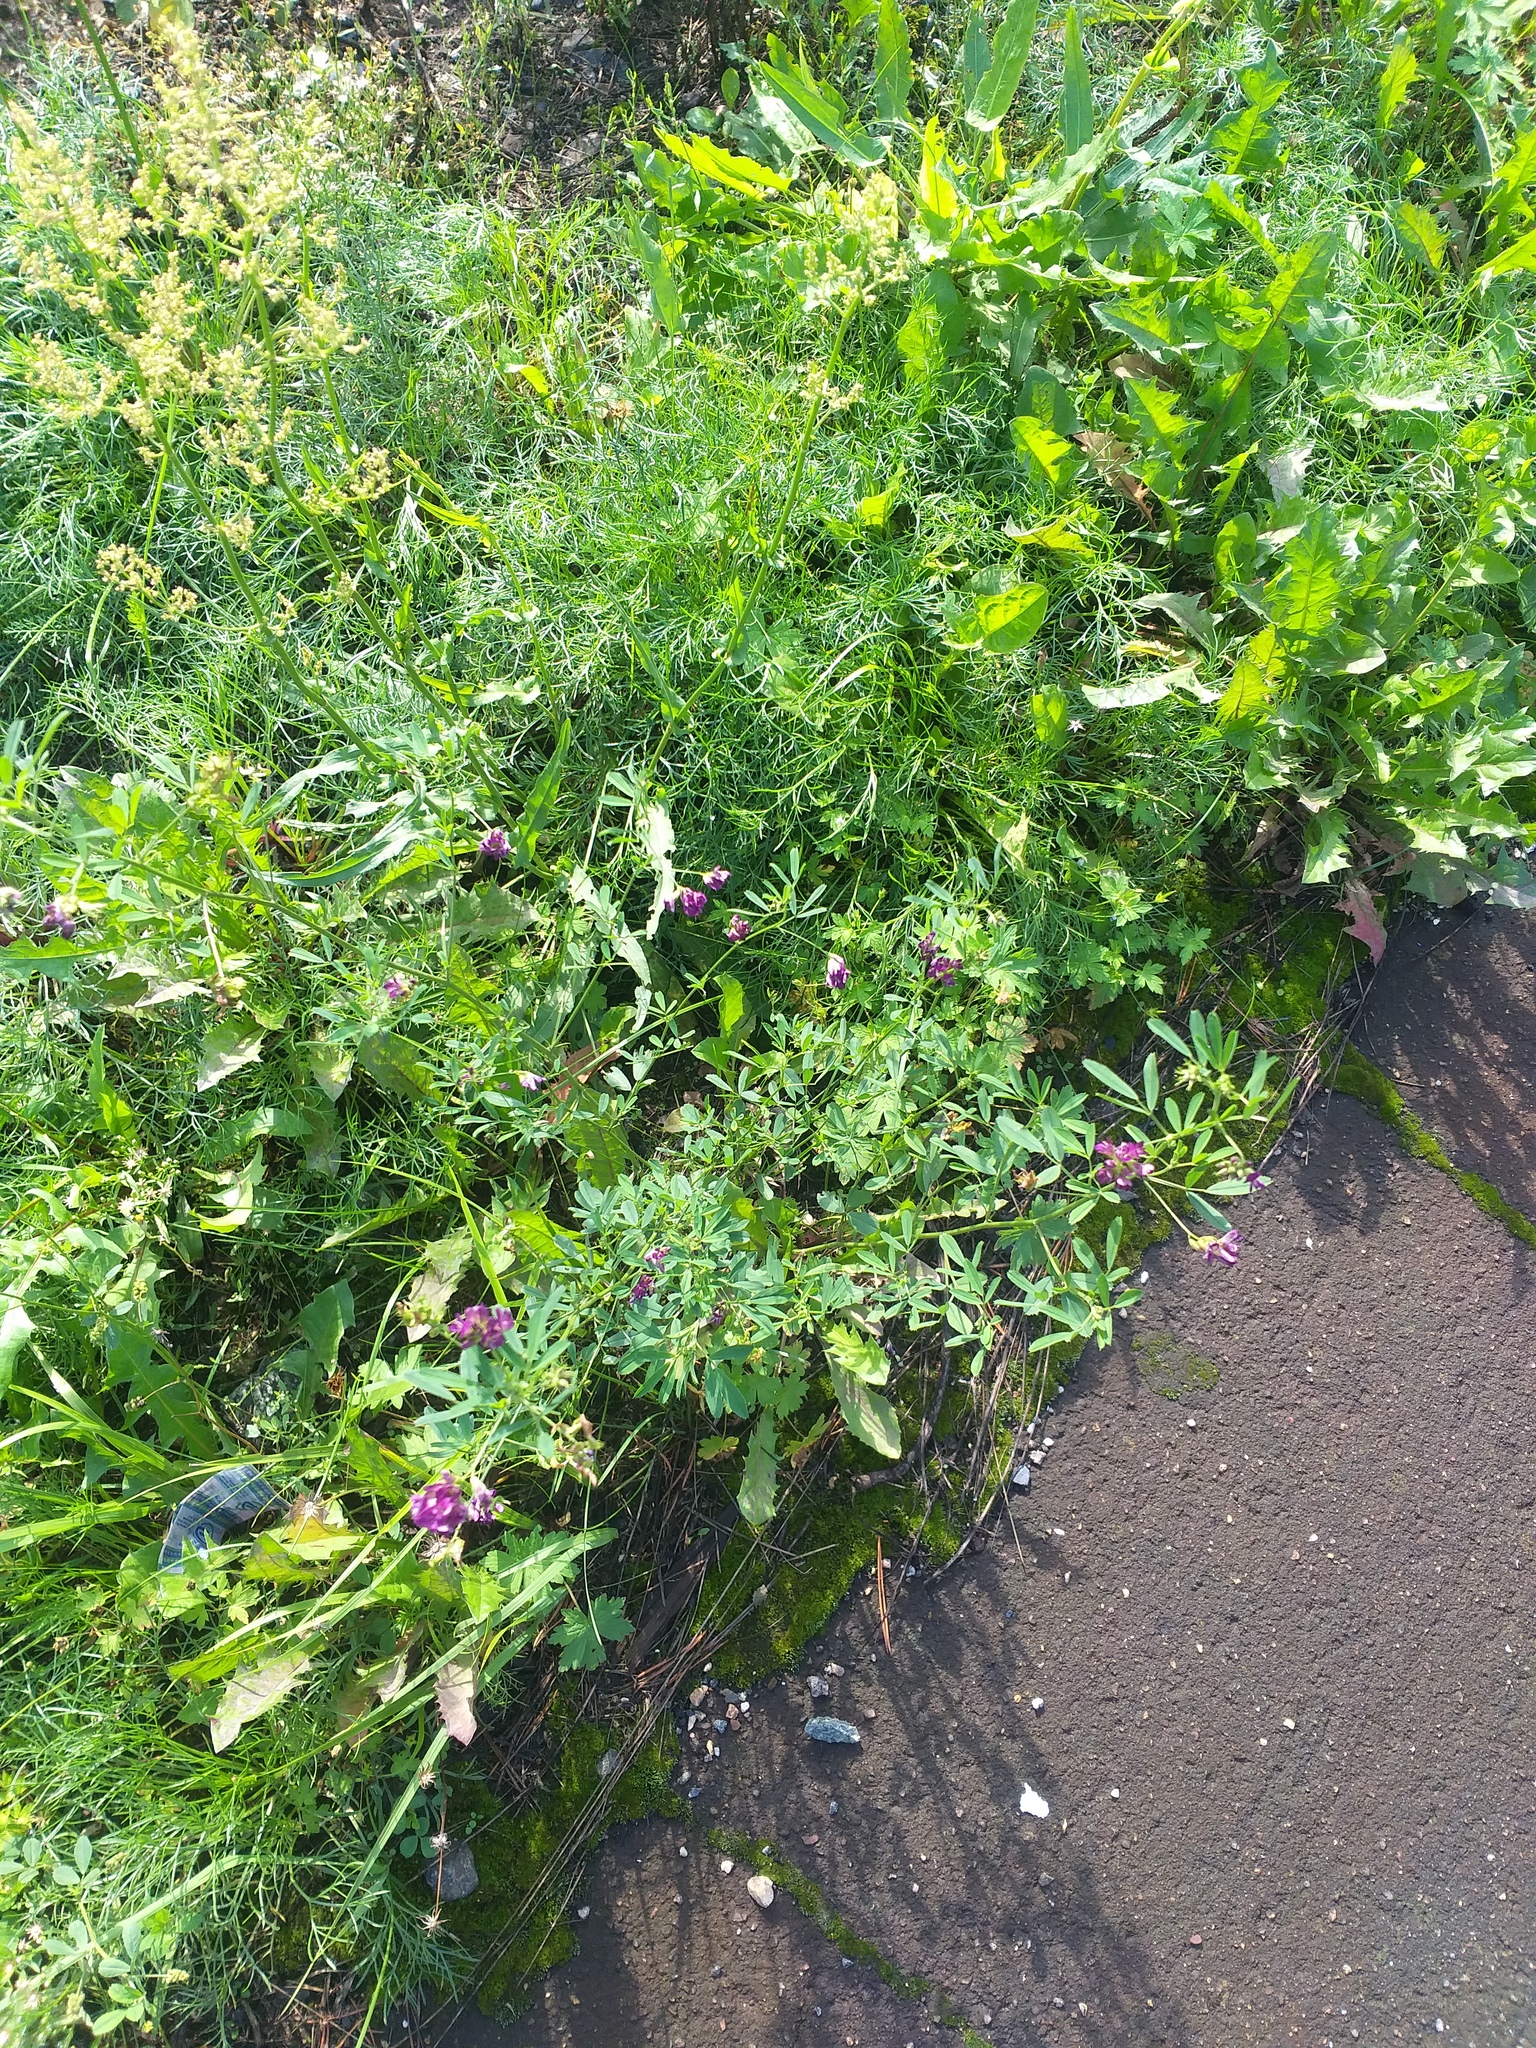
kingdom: Plantae
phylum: Tracheophyta
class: Magnoliopsida
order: Fabales
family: Fabaceae
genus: Medicago
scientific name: Medicago varia
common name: Sand lucerne
